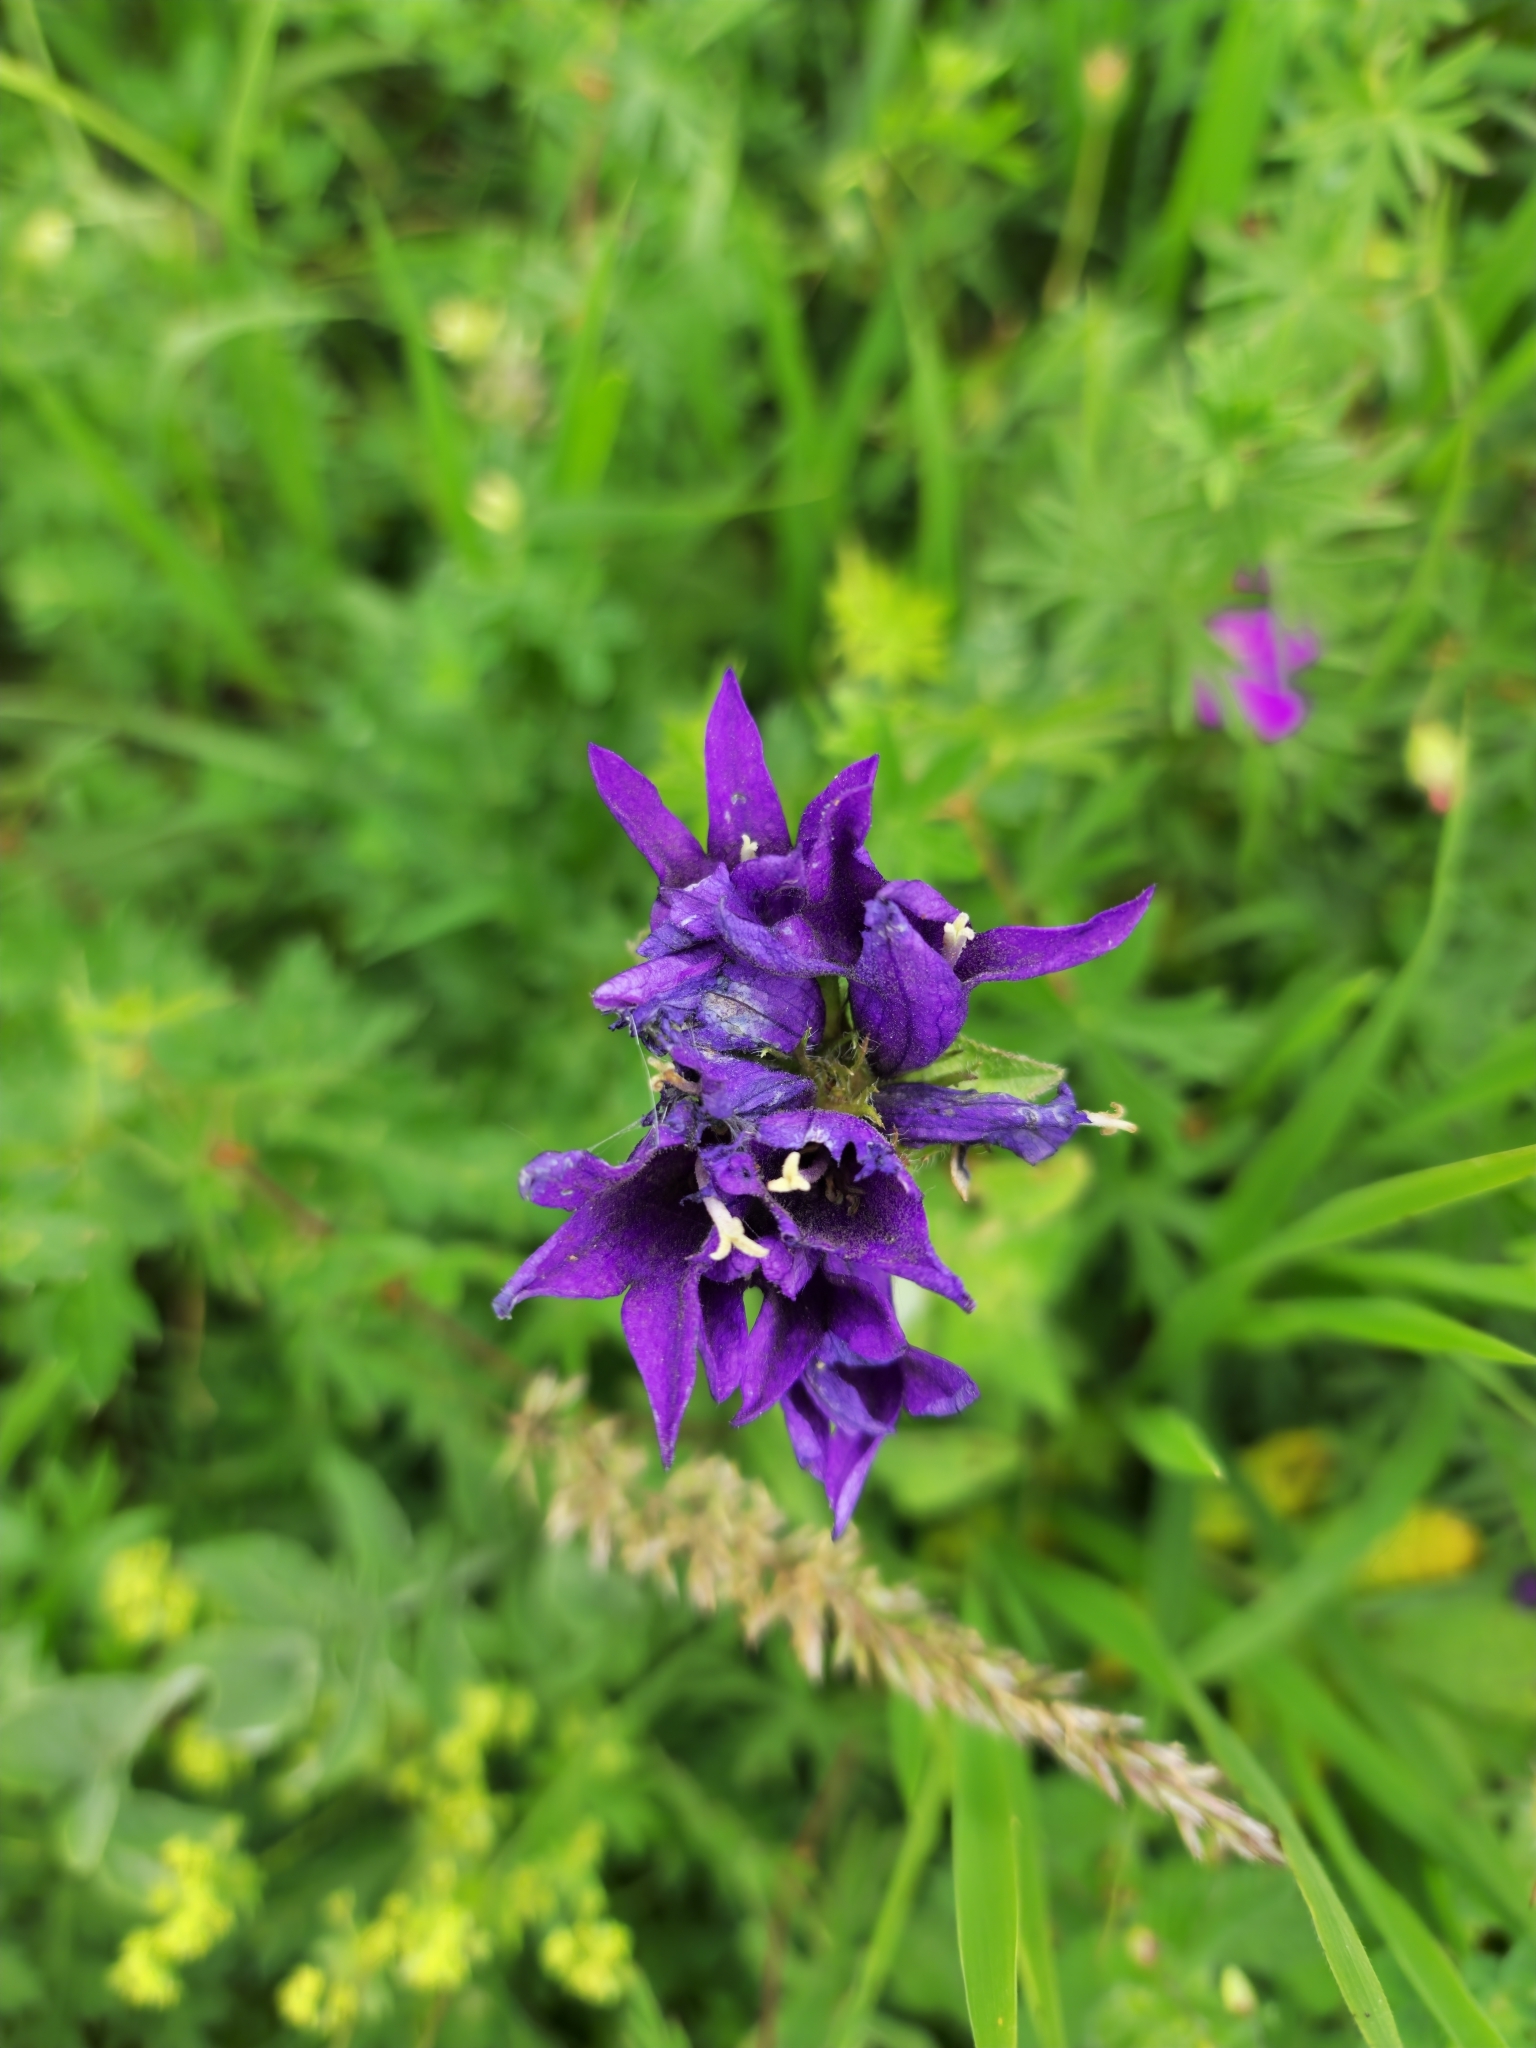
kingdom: Plantae
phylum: Tracheophyta
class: Magnoliopsida
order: Asterales
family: Campanulaceae
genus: Campanula
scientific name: Campanula glomerata
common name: Clustered bellflower
